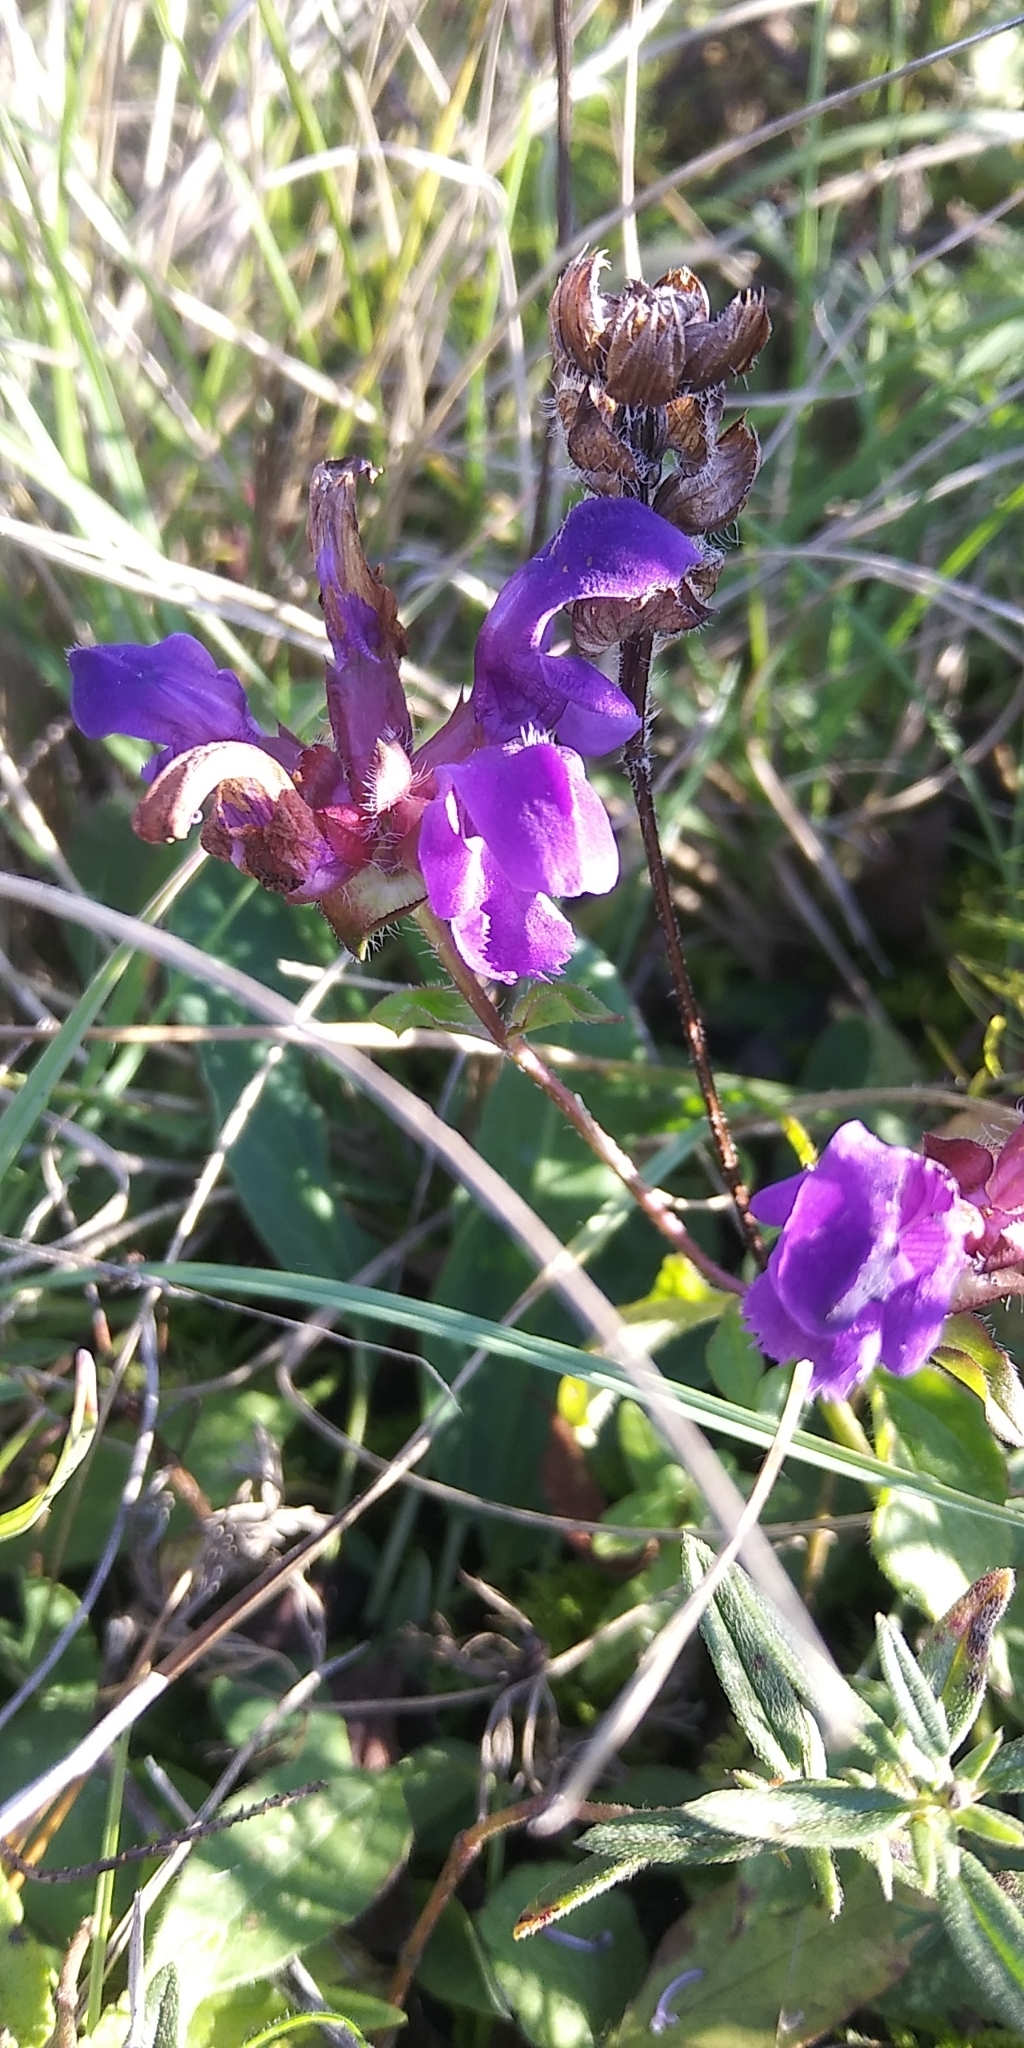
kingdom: Plantae
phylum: Tracheophyta
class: Magnoliopsida
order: Lamiales
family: Lamiaceae
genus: Prunella
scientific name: Prunella grandiflora
